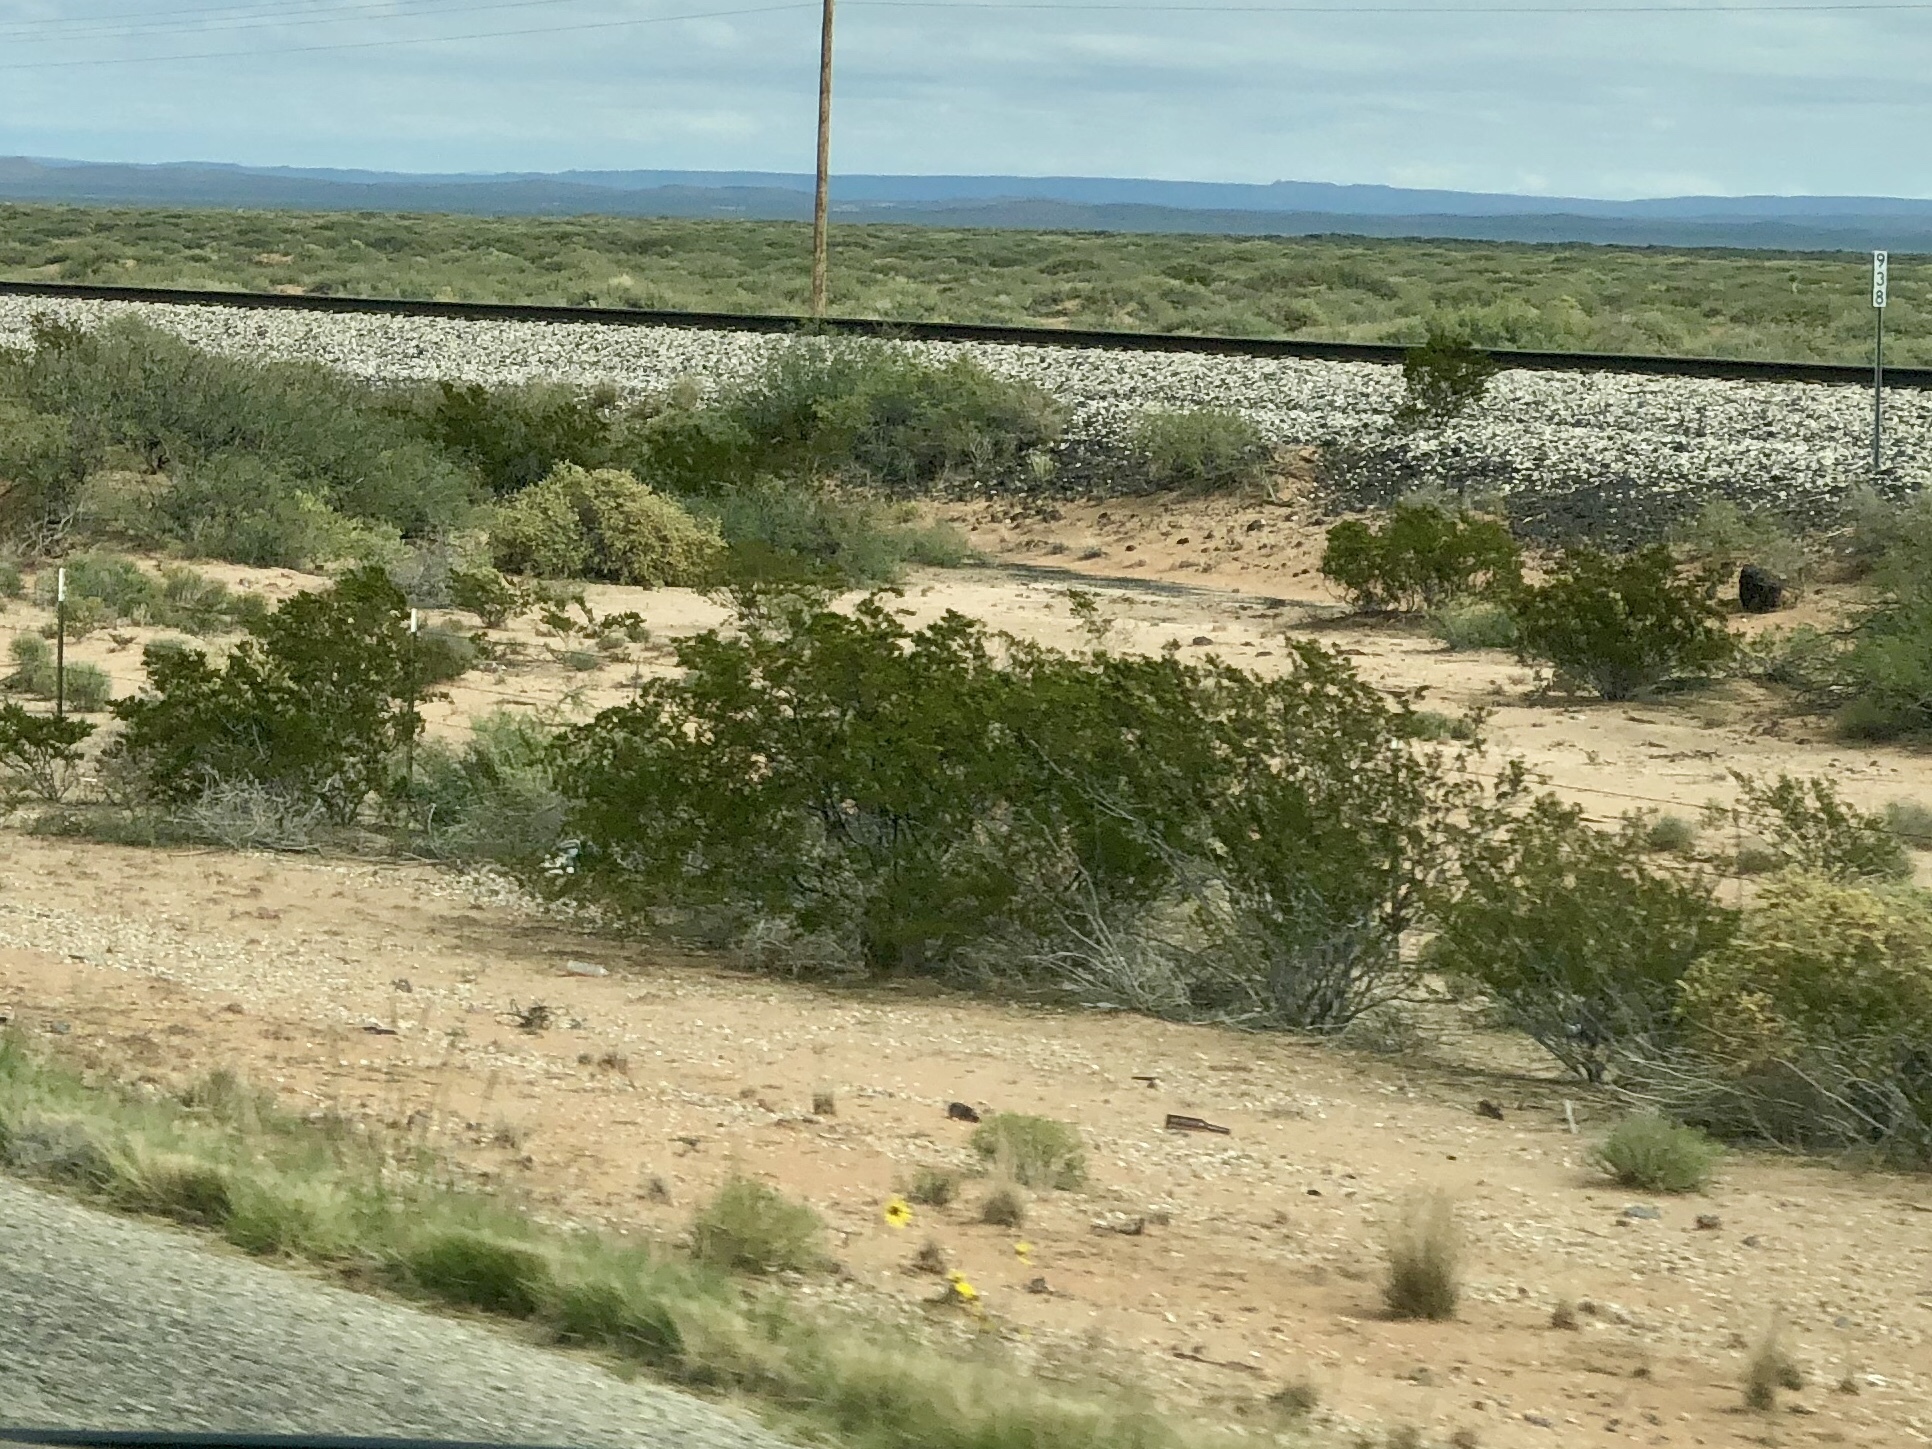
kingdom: Plantae
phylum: Tracheophyta
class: Magnoliopsida
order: Zygophyllales
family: Zygophyllaceae
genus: Larrea
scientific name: Larrea tridentata
